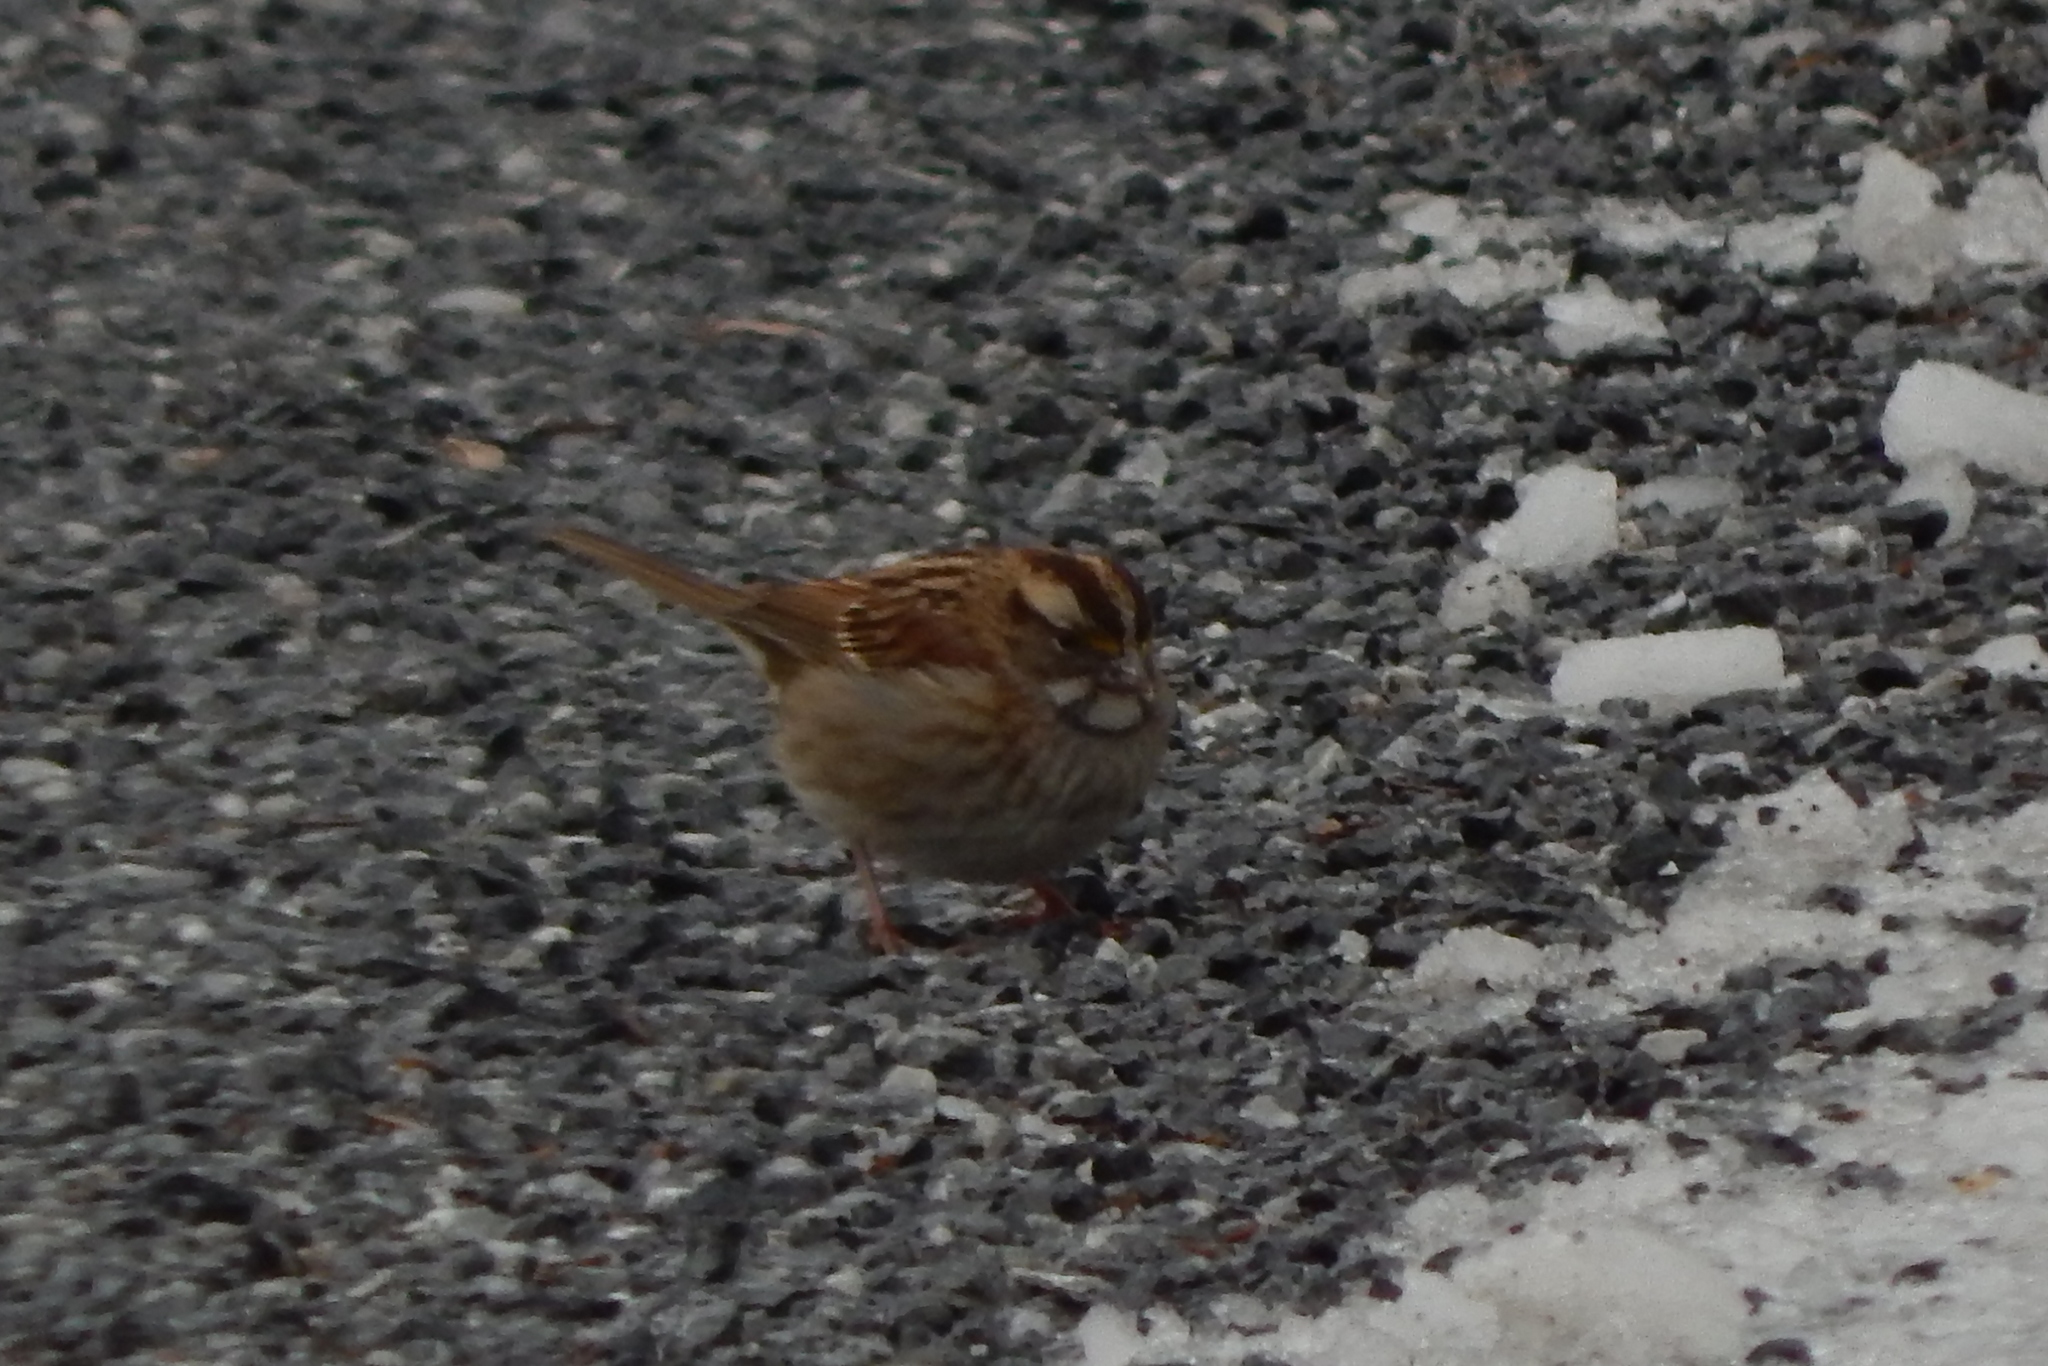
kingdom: Animalia
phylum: Chordata
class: Aves
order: Passeriformes
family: Passerellidae
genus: Zonotrichia
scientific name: Zonotrichia albicollis
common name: White-throated sparrow
